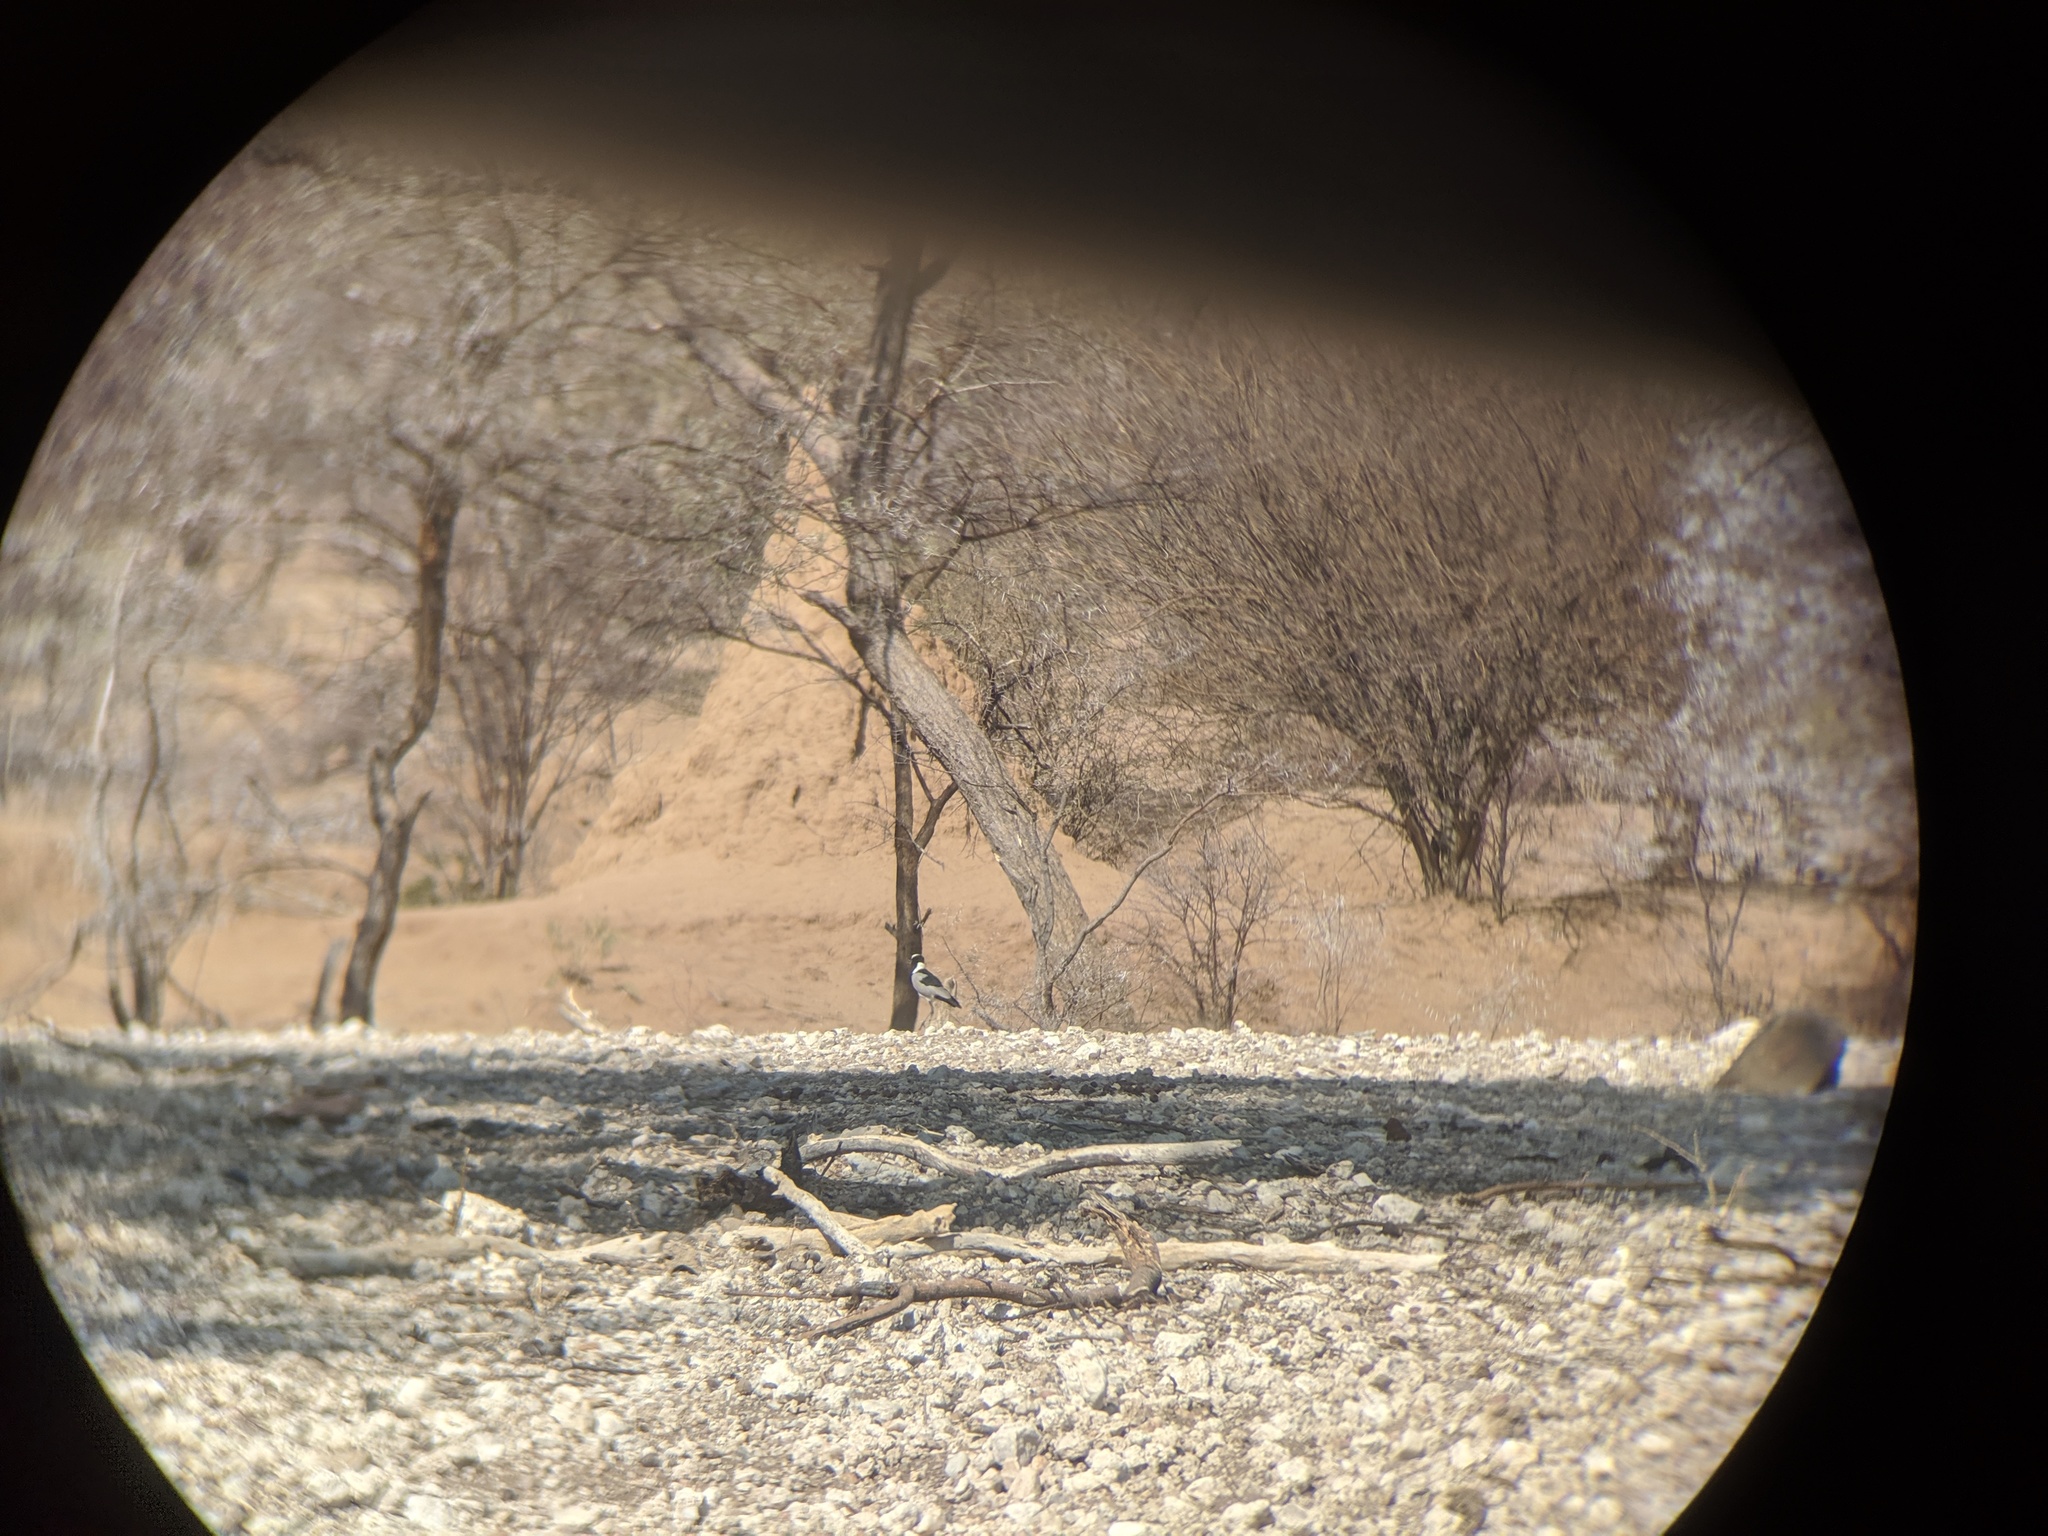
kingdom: Animalia
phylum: Chordata
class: Aves
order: Charadriiformes
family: Charadriidae
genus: Vanellus
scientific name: Vanellus armatus
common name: Blacksmith lapwing
